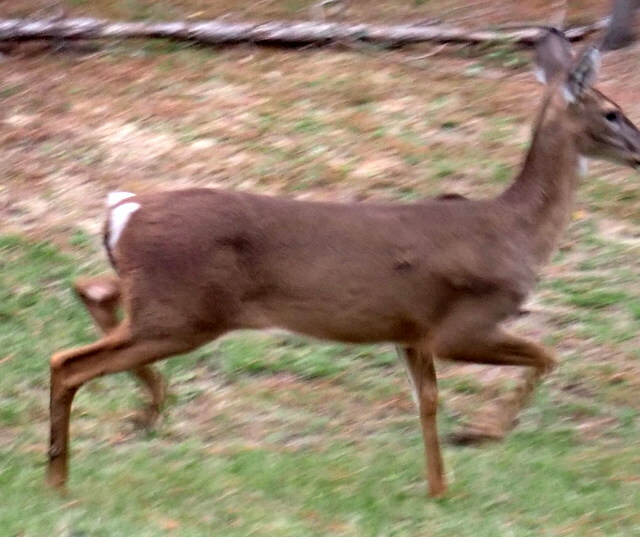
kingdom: Animalia
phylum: Chordata
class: Mammalia
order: Artiodactyla
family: Cervidae
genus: Odocoileus
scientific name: Odocoileus virginianus
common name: White-tailed deer
